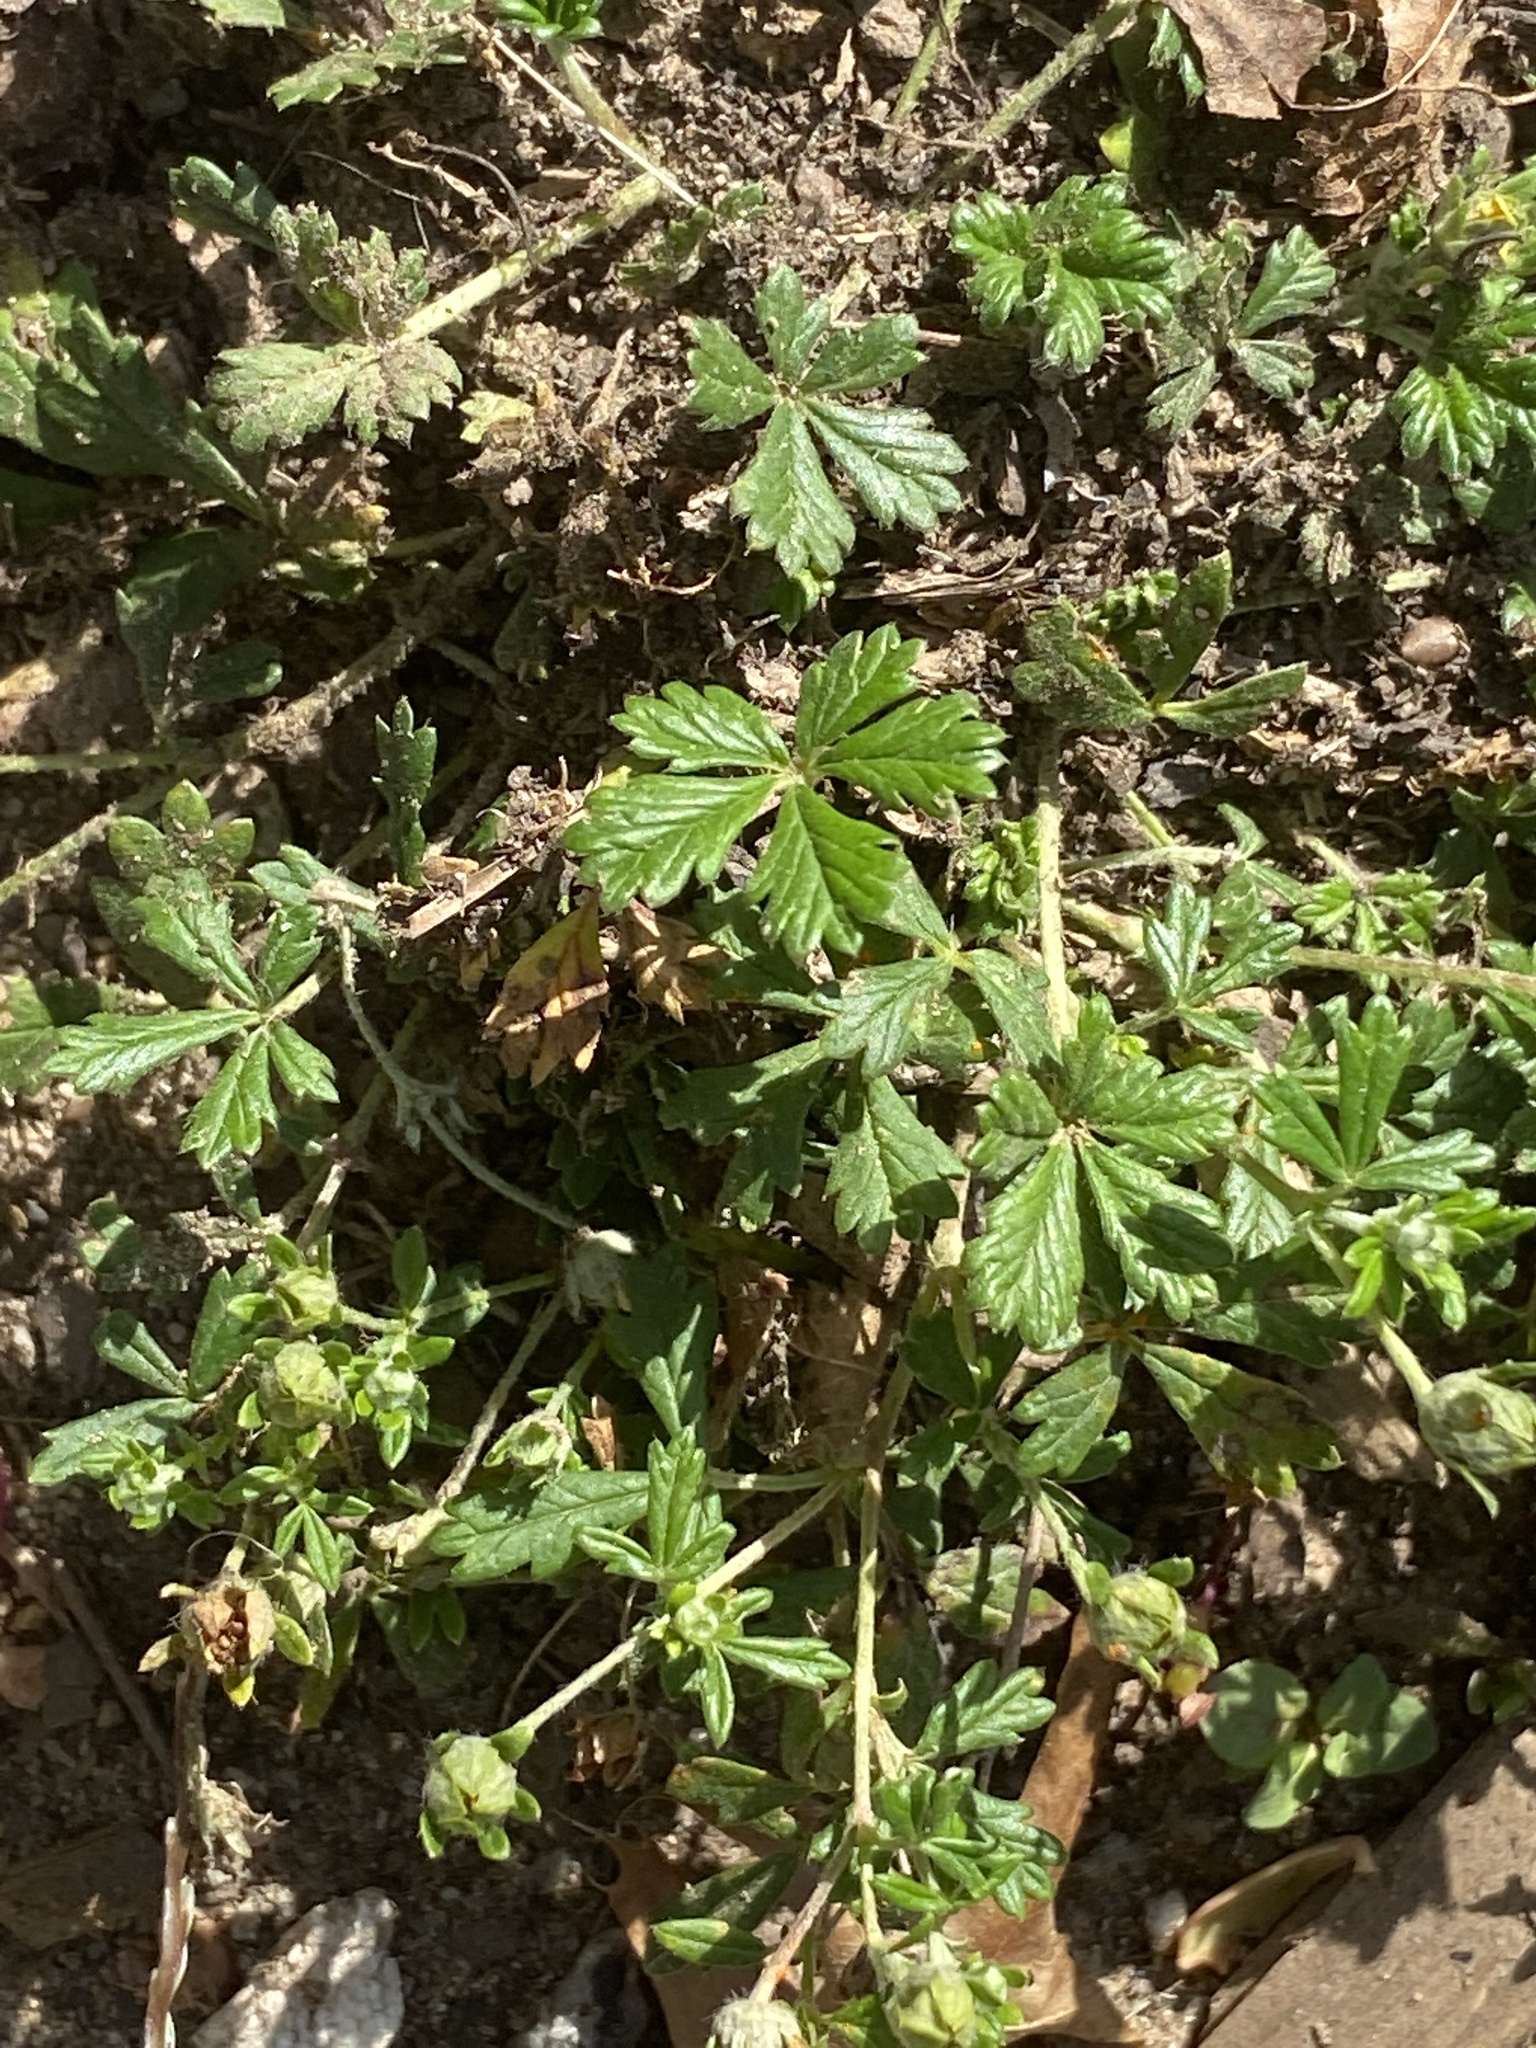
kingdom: Plantae
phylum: Tracheophyta
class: Magnoliopsida
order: Rosales
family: Rosaceae
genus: Potentilla
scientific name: Potentilla argentea
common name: Hoary cinquefoil
